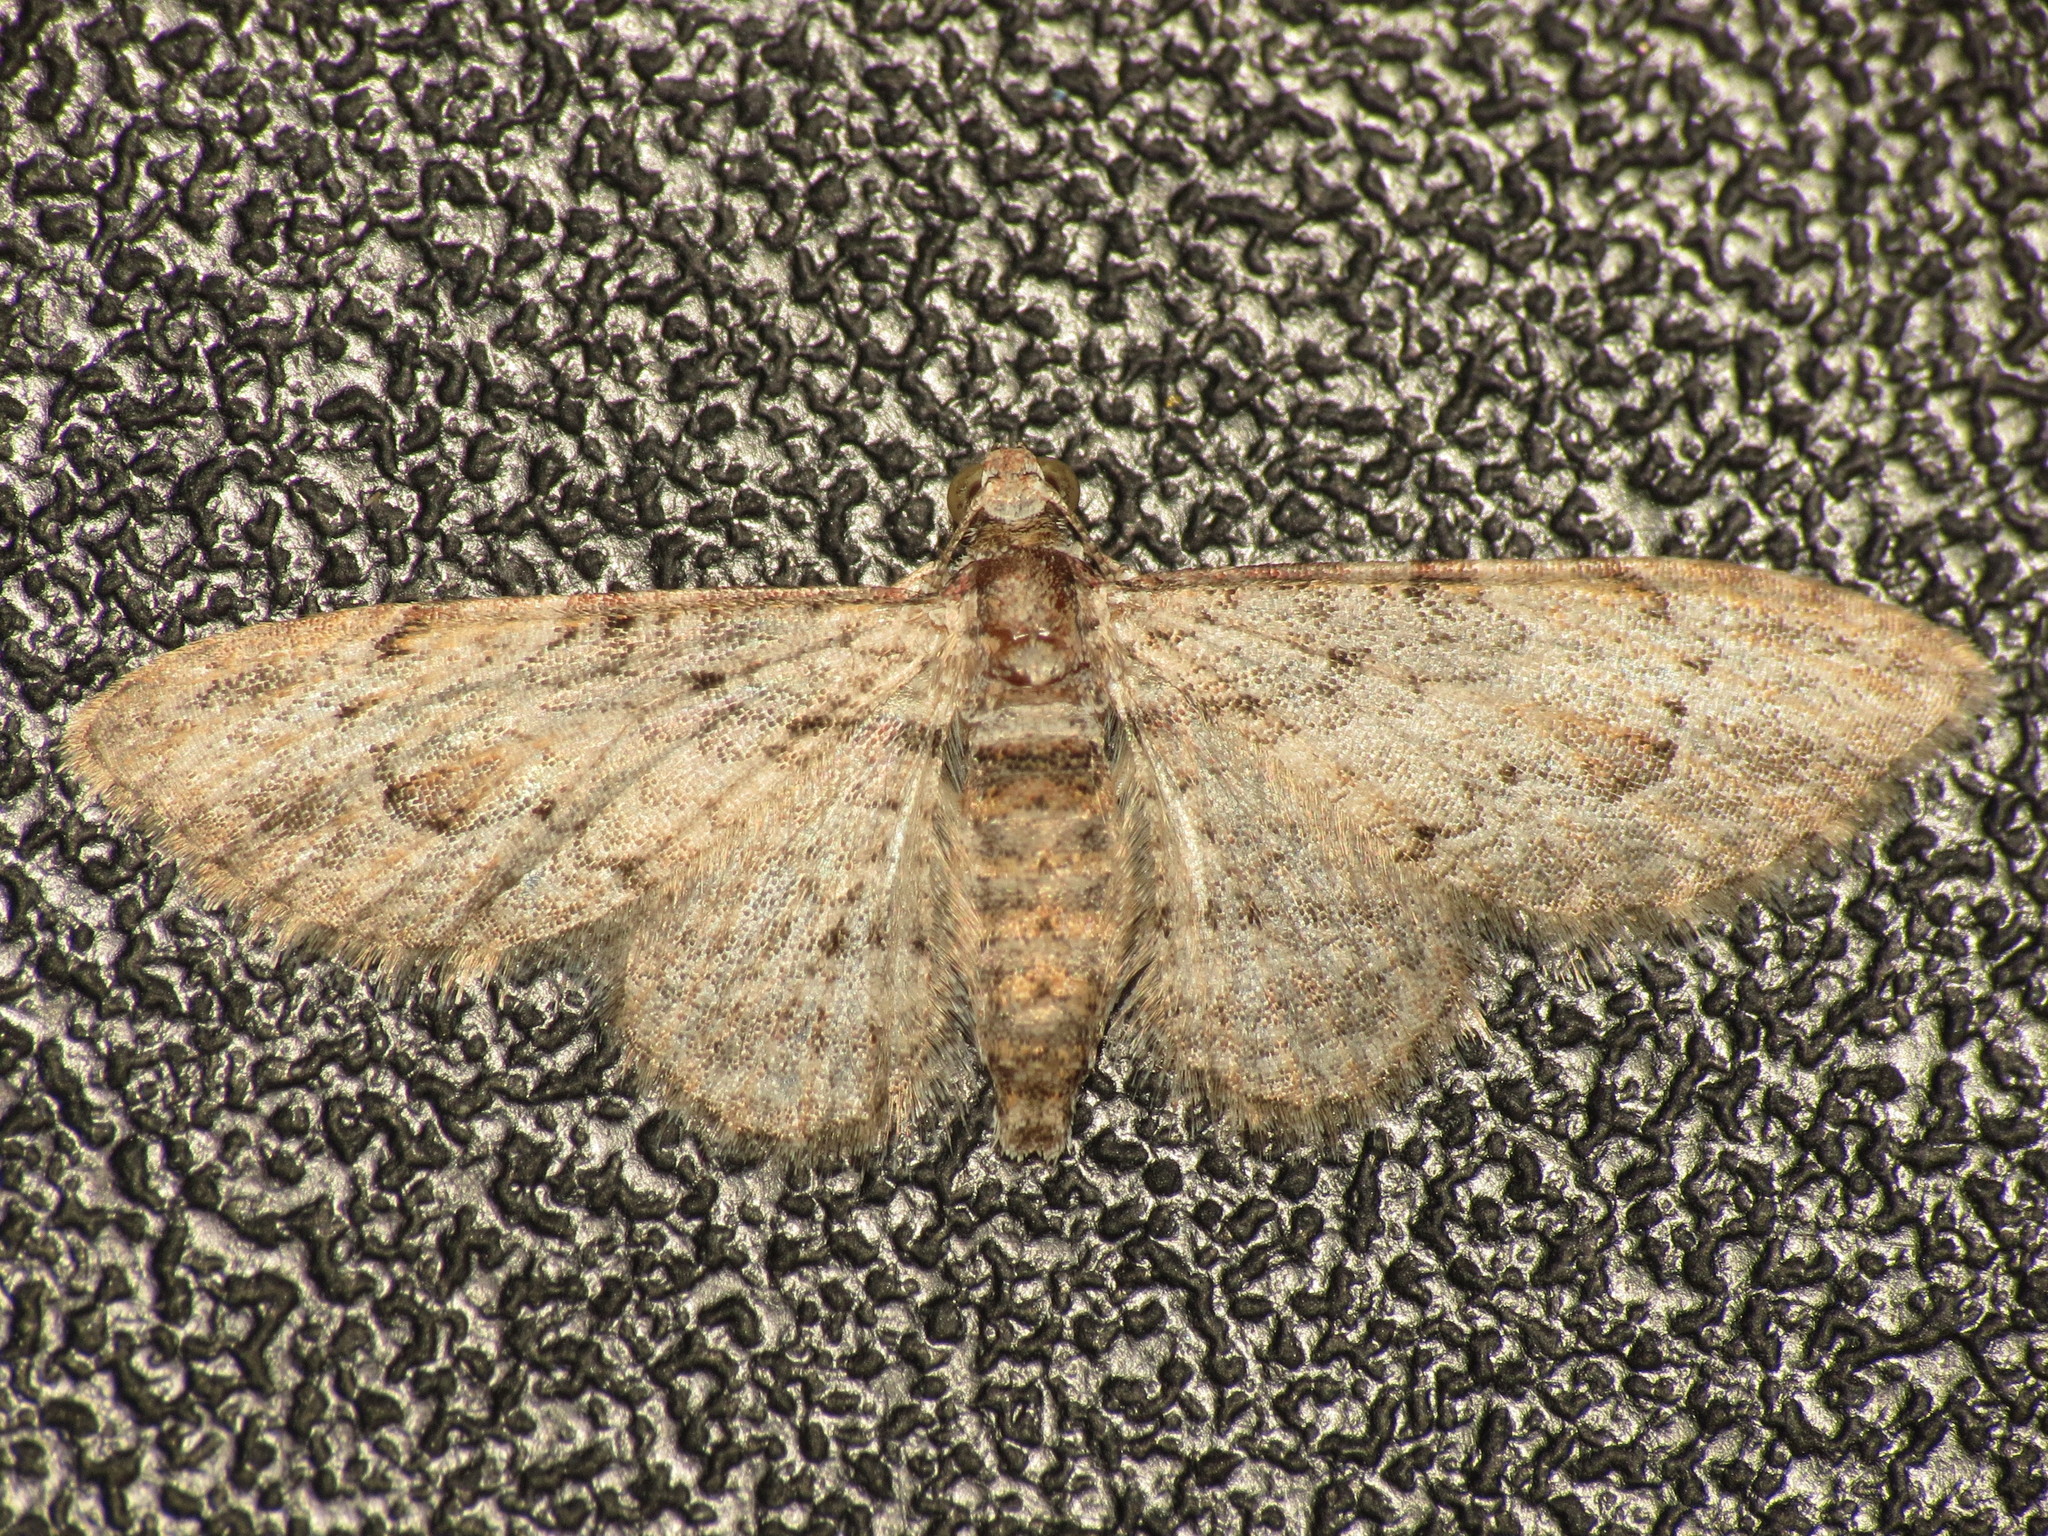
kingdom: Animalia
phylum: Arthropoda
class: Insecta
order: Lepidoptera
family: Geometridae
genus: Chloroclystis
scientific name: Chloroclystis insigillata
